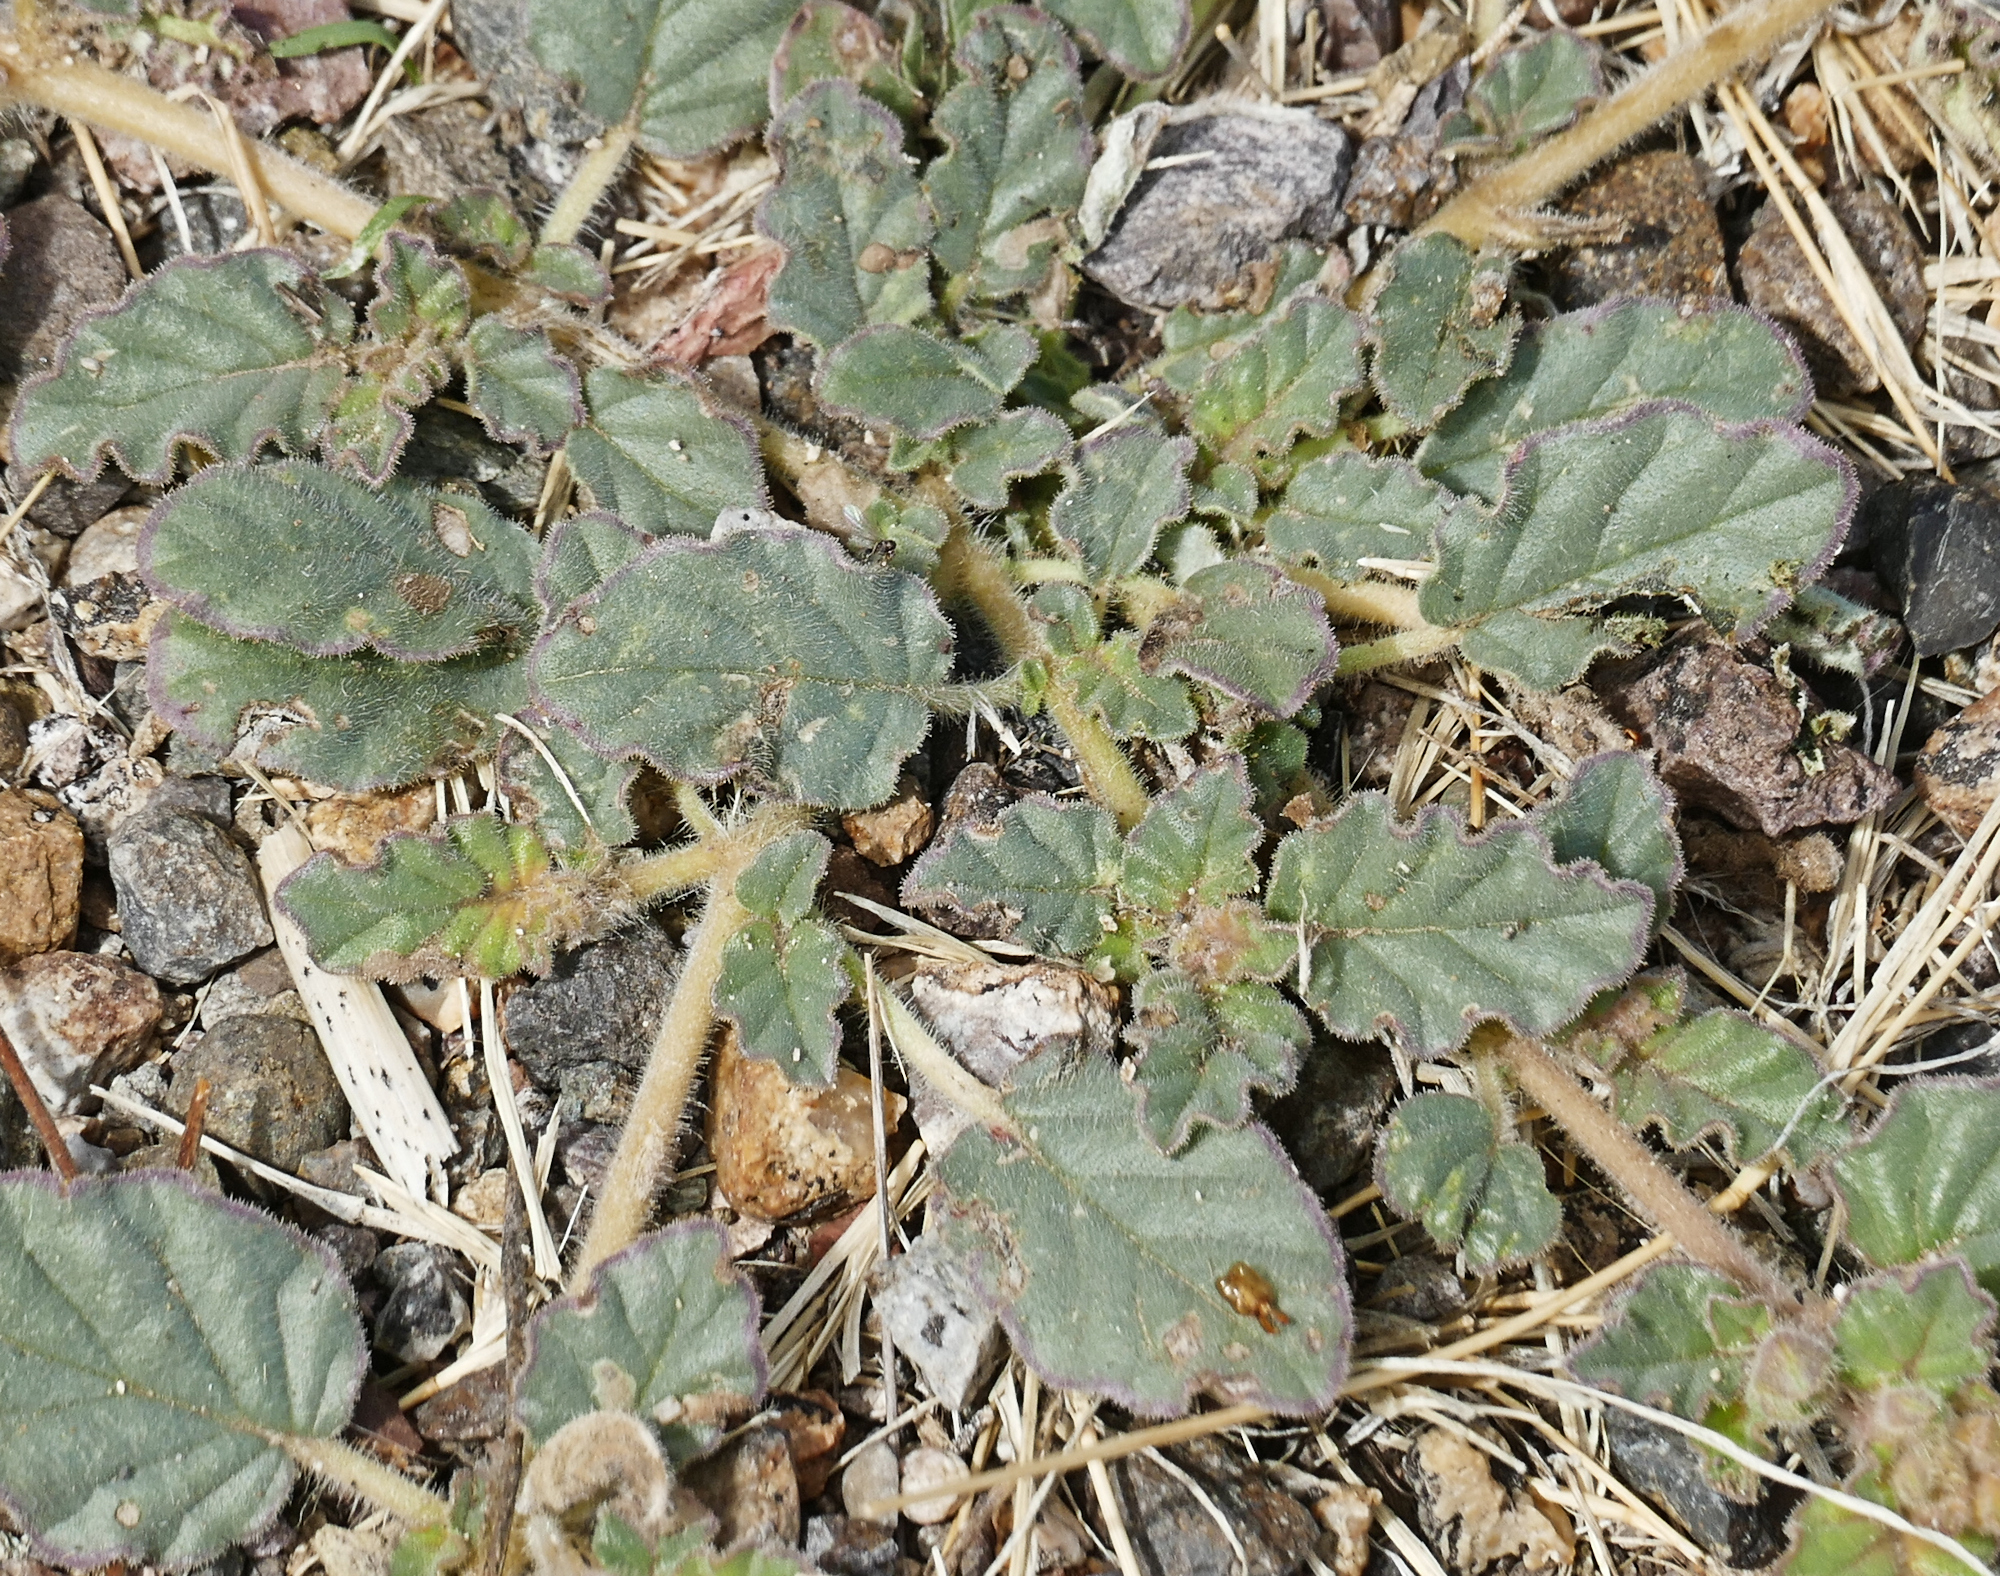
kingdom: Plantae
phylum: Tracheophyta
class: Magnoliopsida
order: Caryophyllales
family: Nyctaginaceae
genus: Allionia
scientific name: Allionia incarnata
